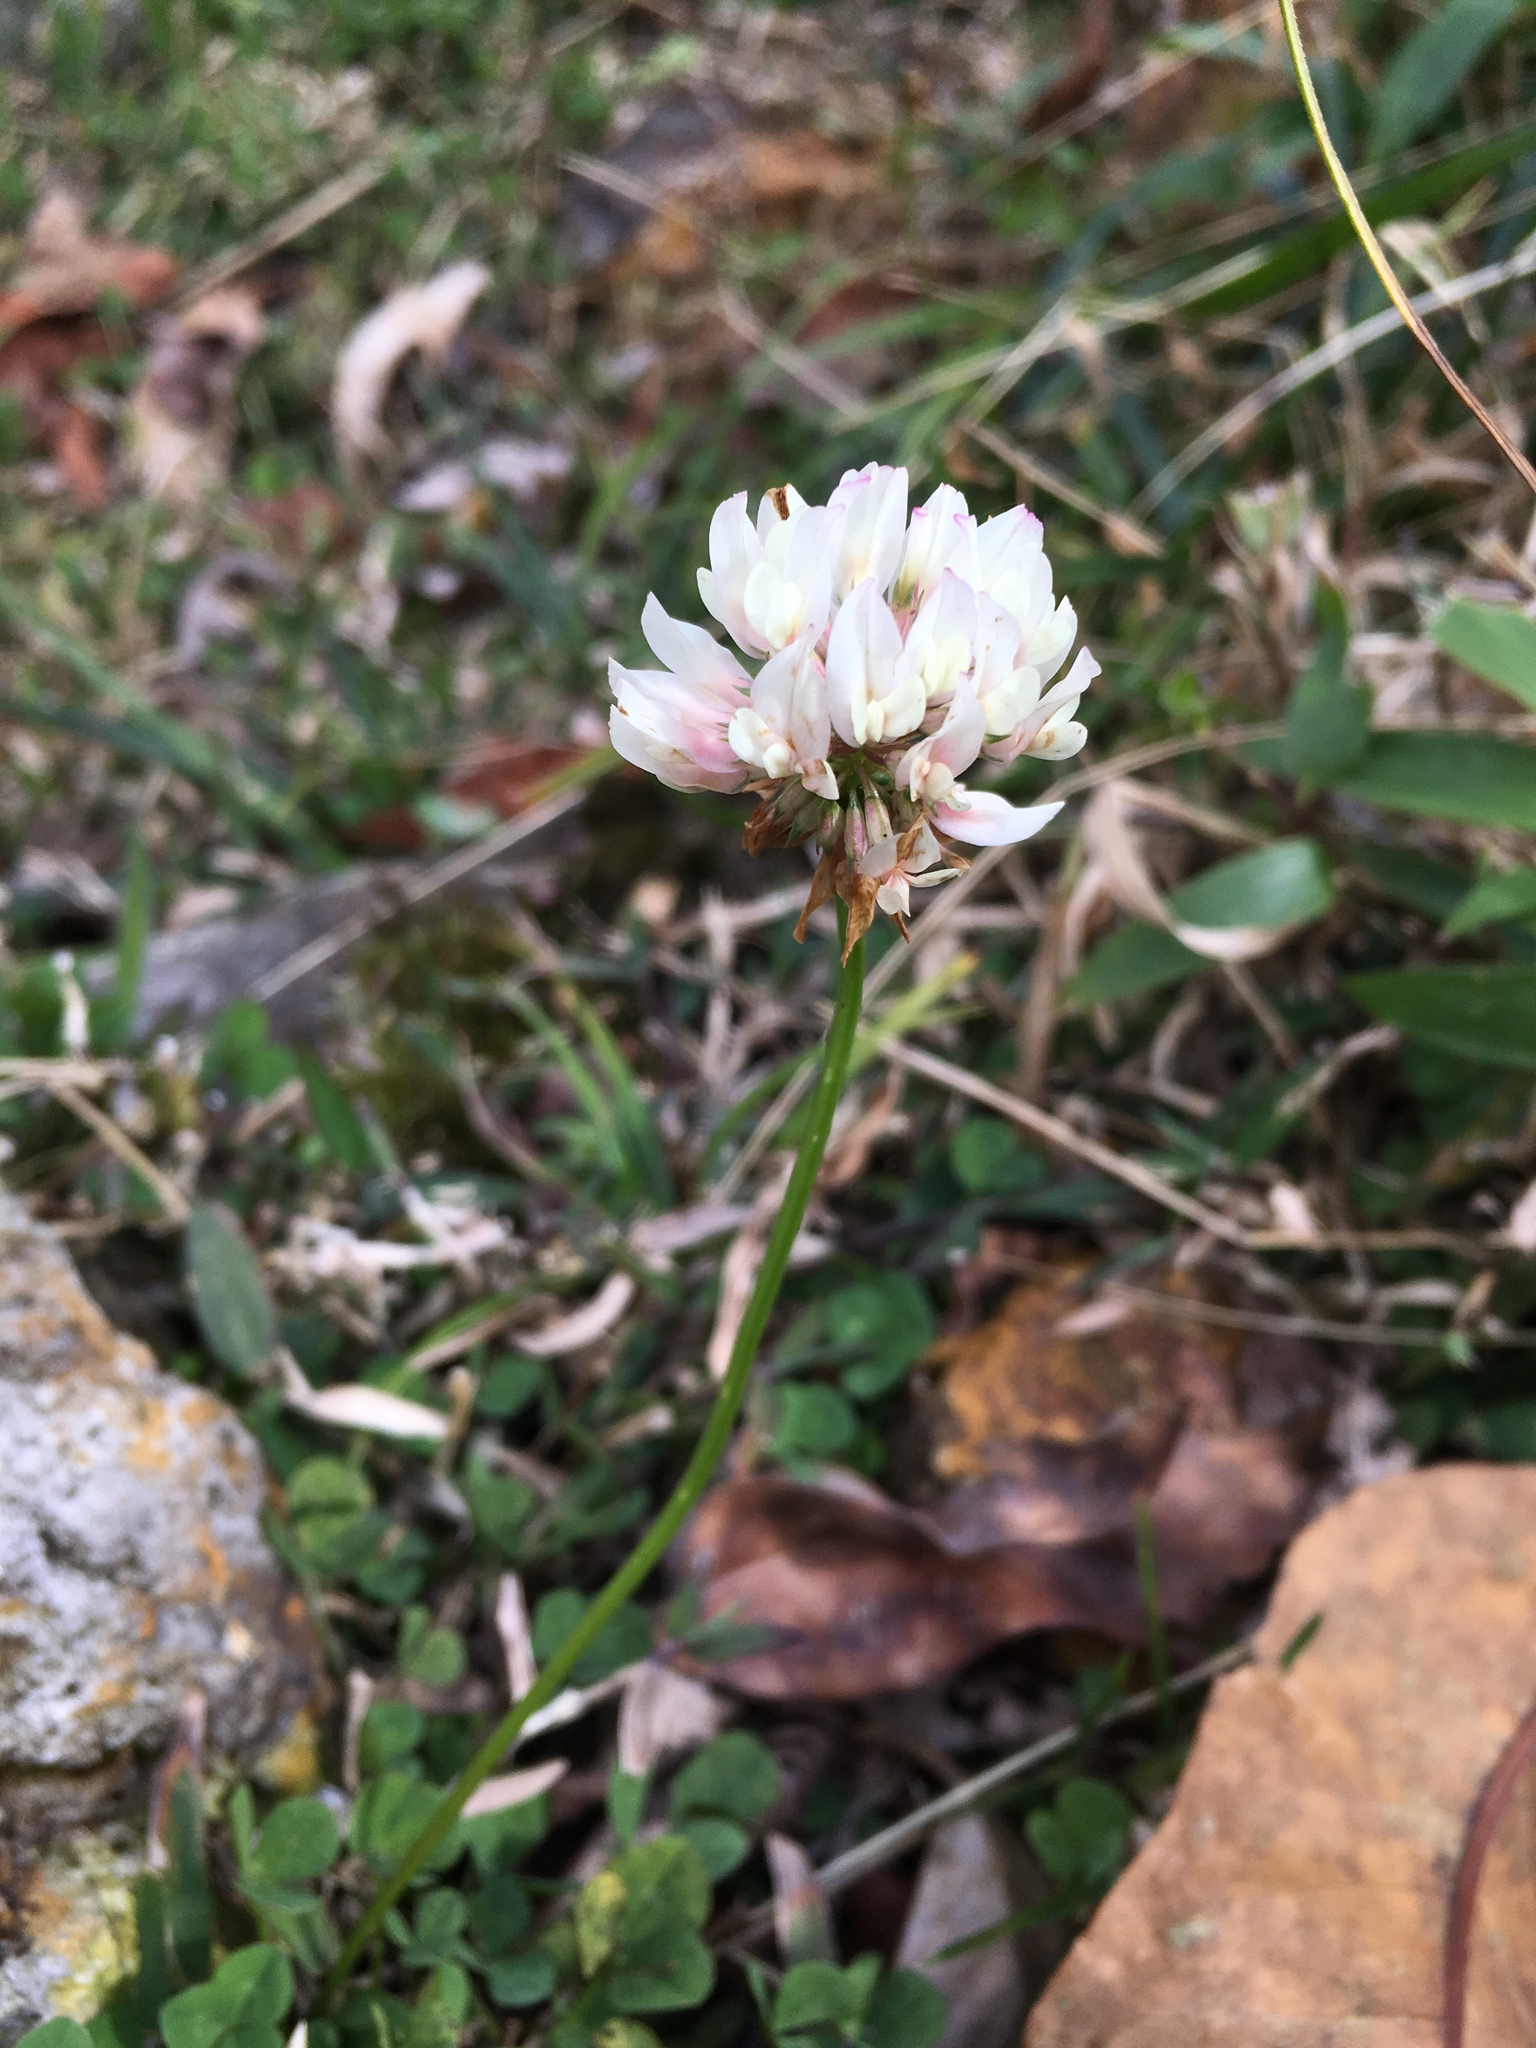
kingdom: Plantae
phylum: Tracheophyta
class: Magnoliopsida
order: Fabales
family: Fabaceae
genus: Trifolium
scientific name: Trifolium repens
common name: White clover
